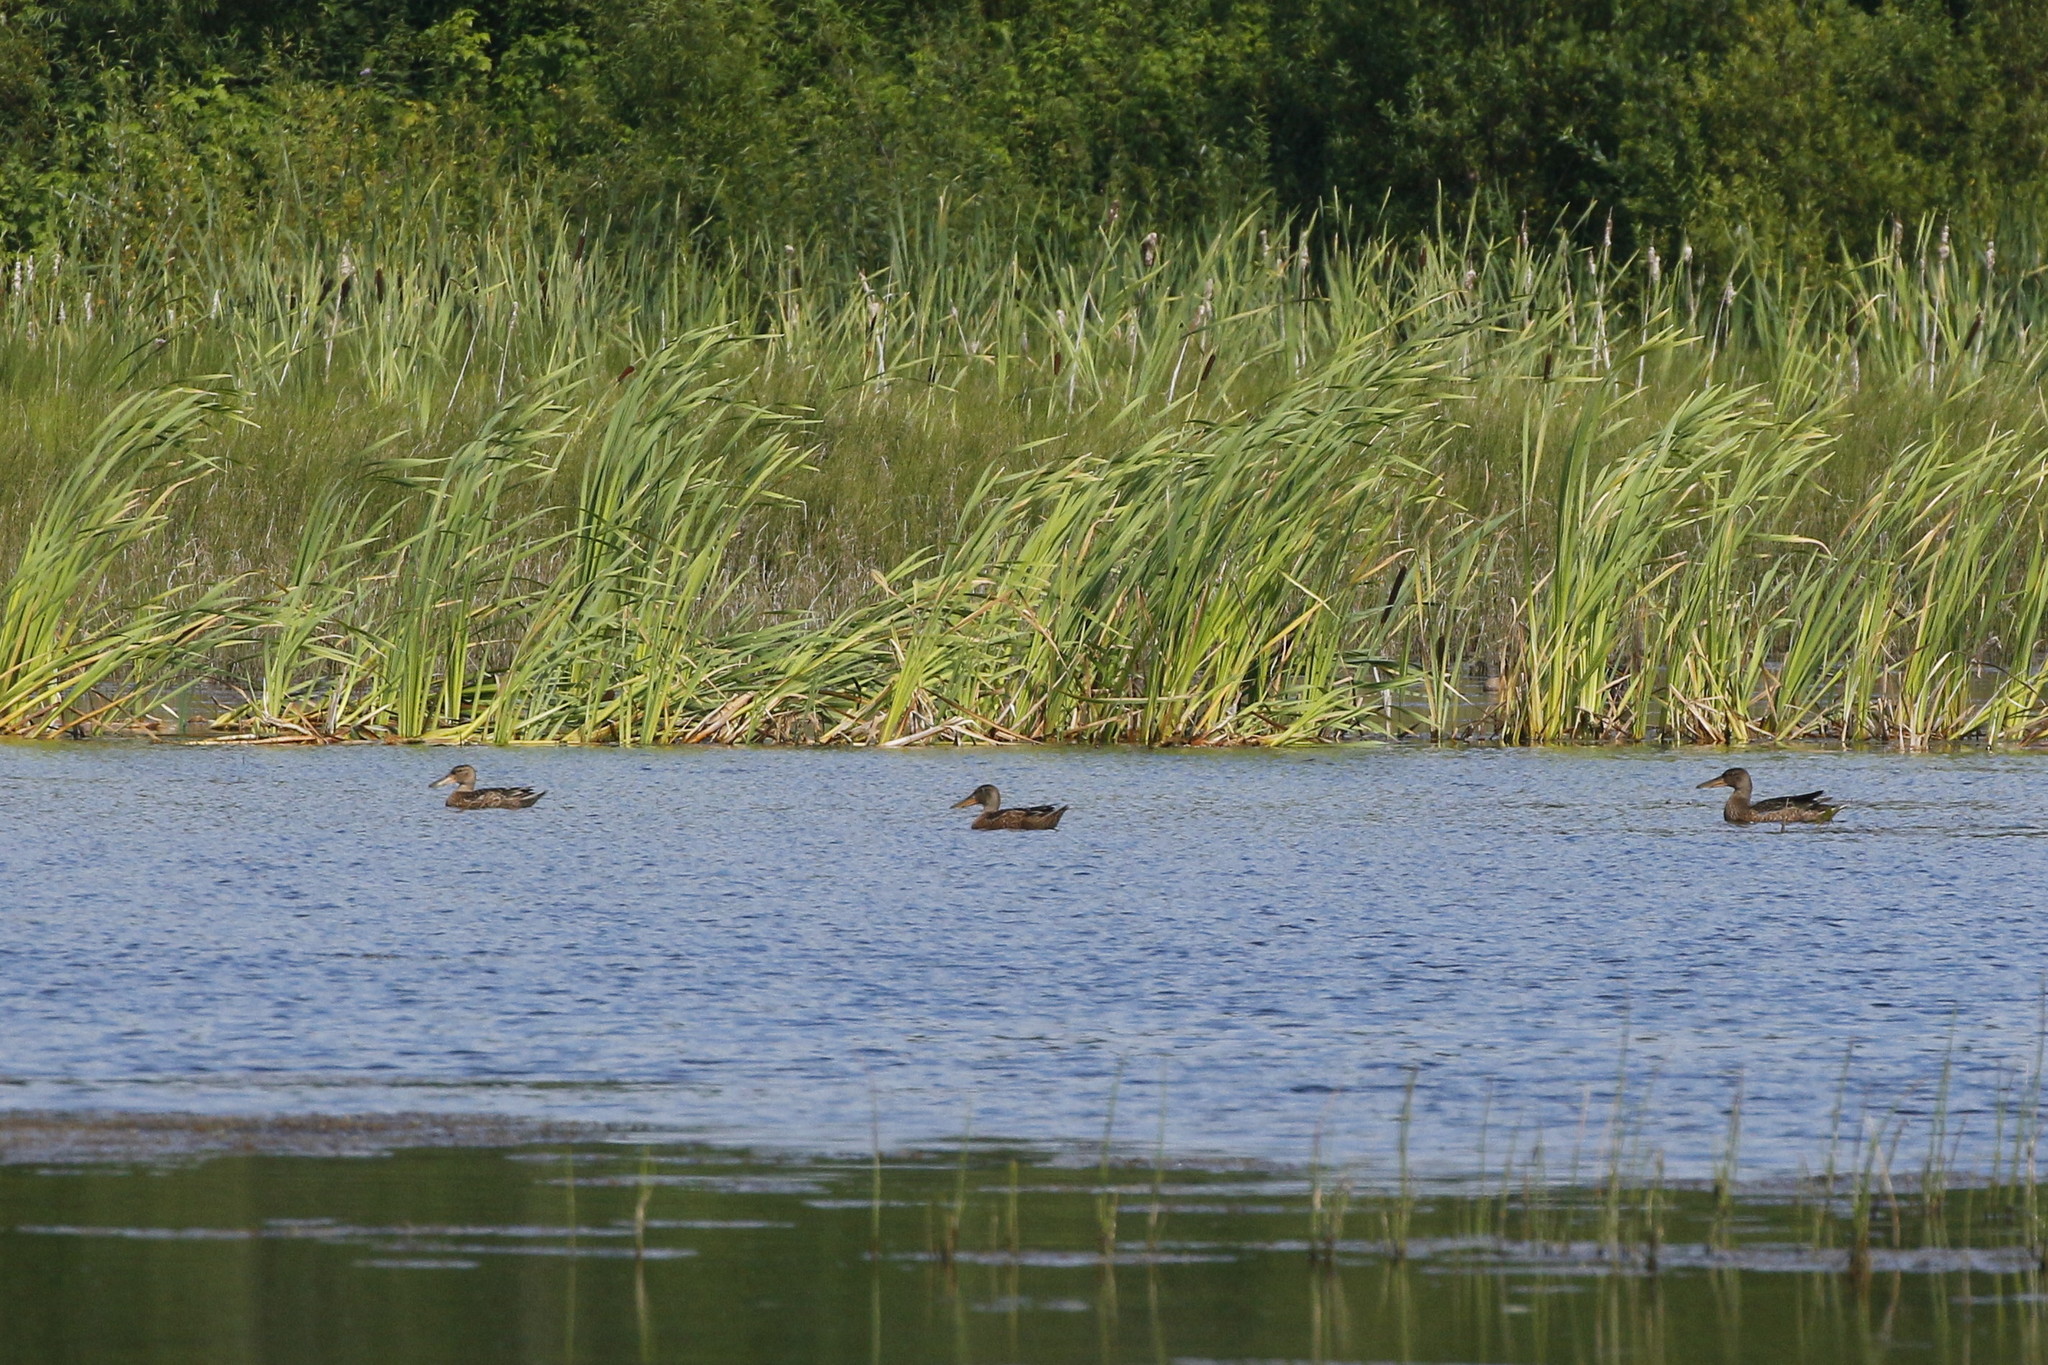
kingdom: Animalia
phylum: Chordata
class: Aves
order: Anseriformes
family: Anatidae
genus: Spatula
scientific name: Spatula clypeata
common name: Northern shoveler
